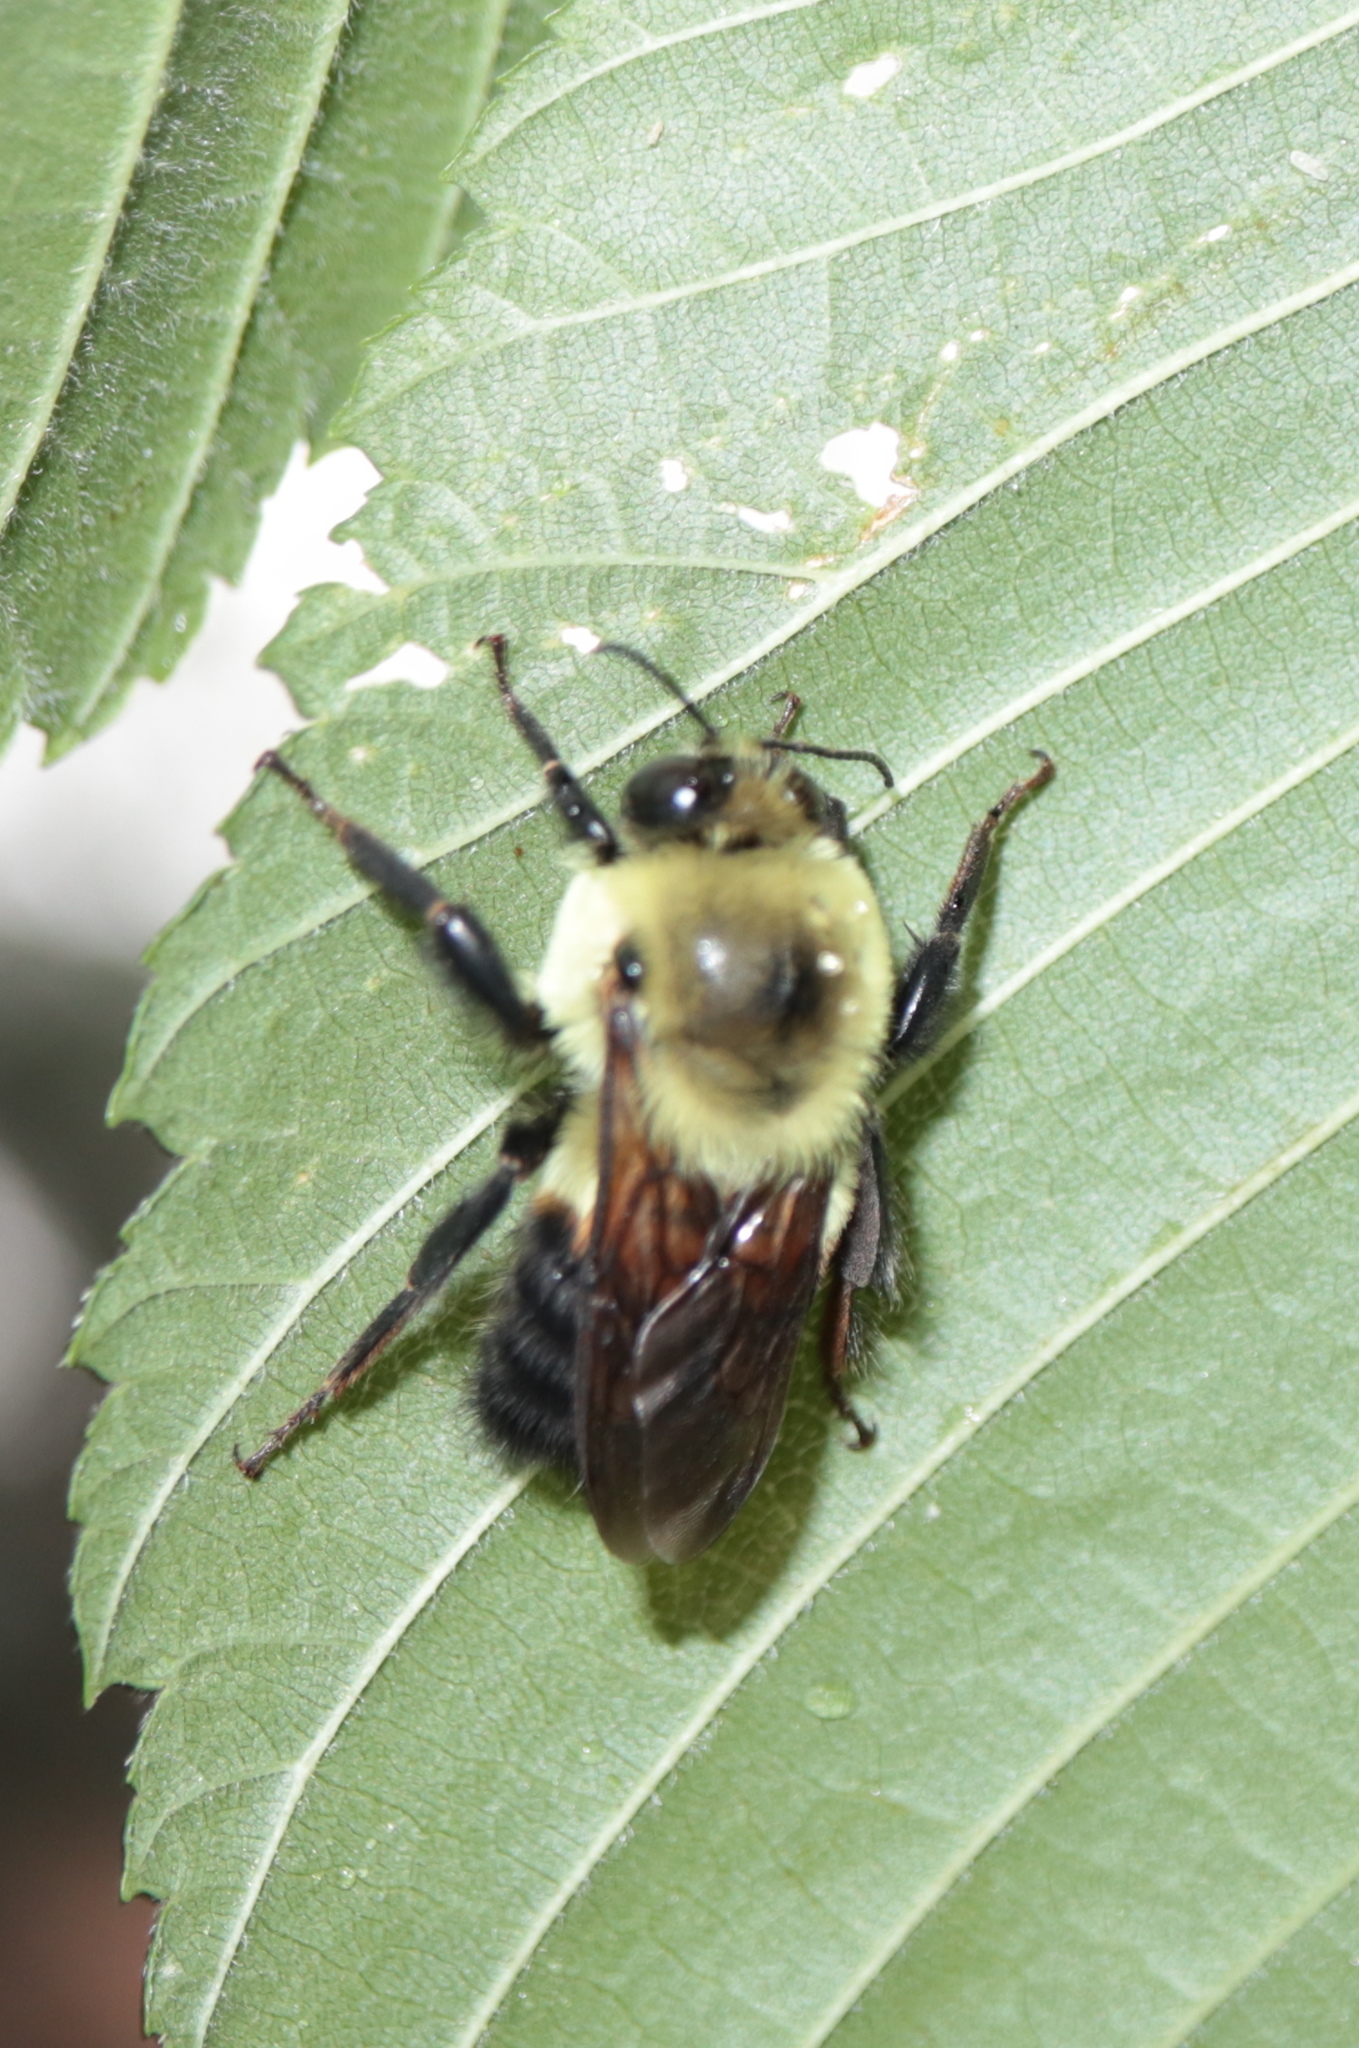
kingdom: Animalia
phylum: Arthropoda
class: Insecta
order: Hymenoptera
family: Apidae
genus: Bombus
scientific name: Bombus griseocollis
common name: Brown-belted bumble bee
